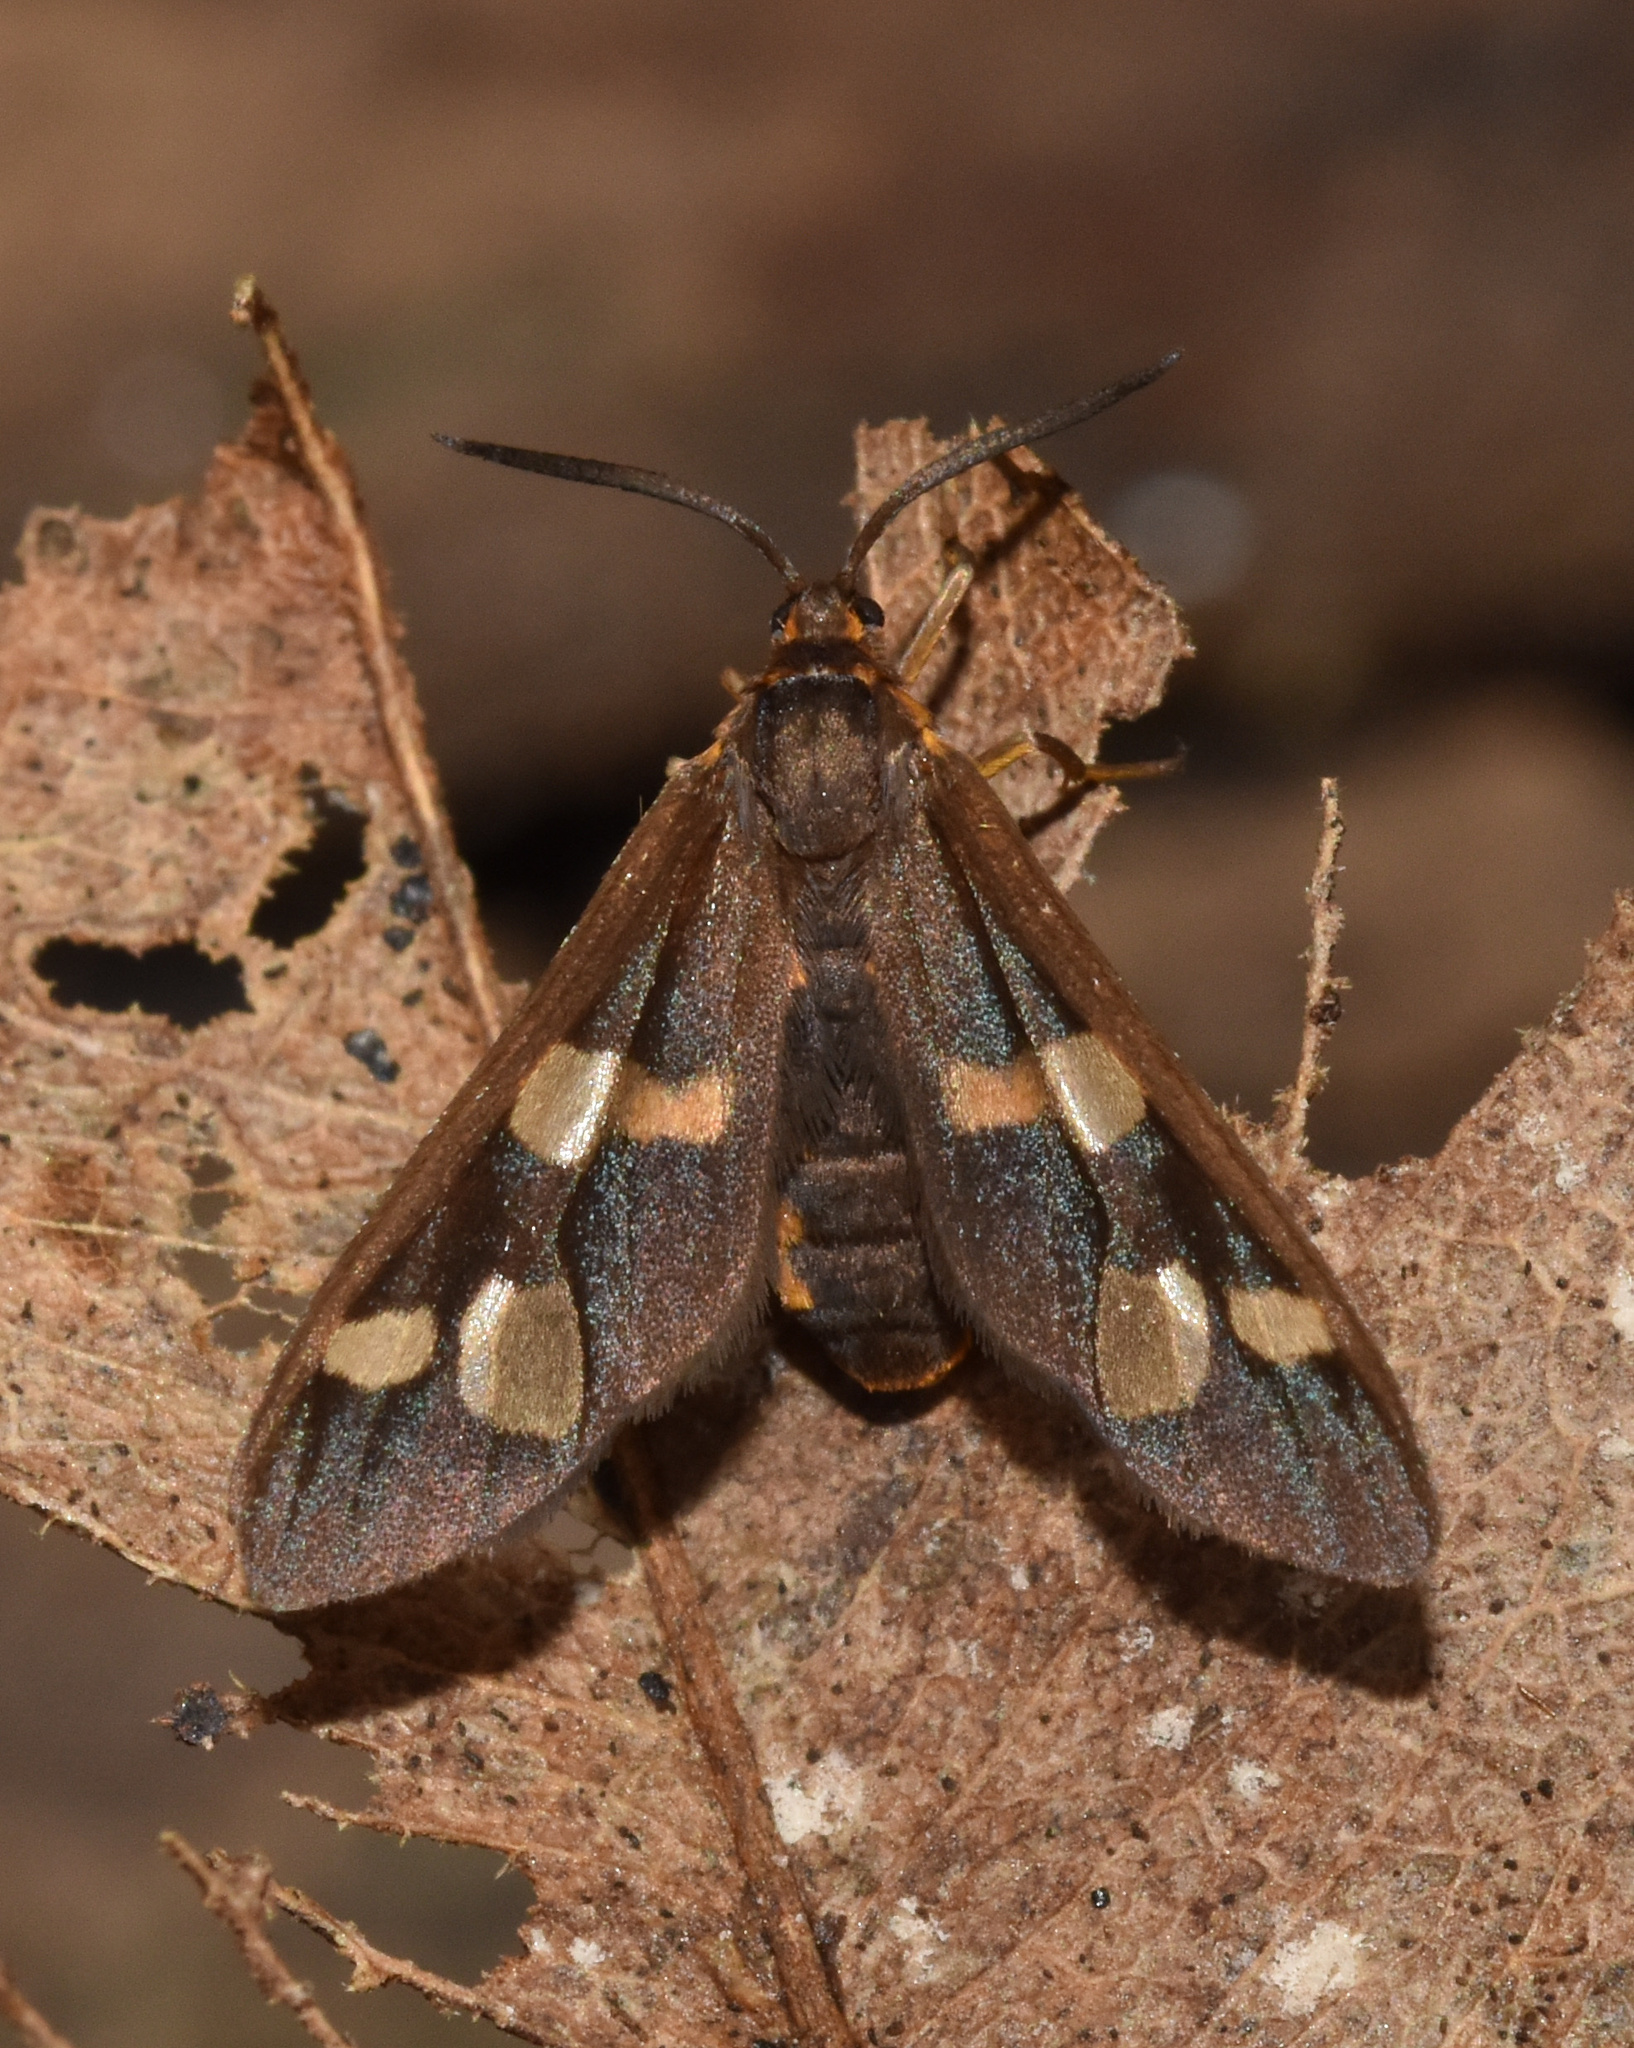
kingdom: Animalia
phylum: Arthropoda
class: Insecta
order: Lepidoptera
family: Erebidae
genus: Pseudonaclia
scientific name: Pseudonaclia puella
